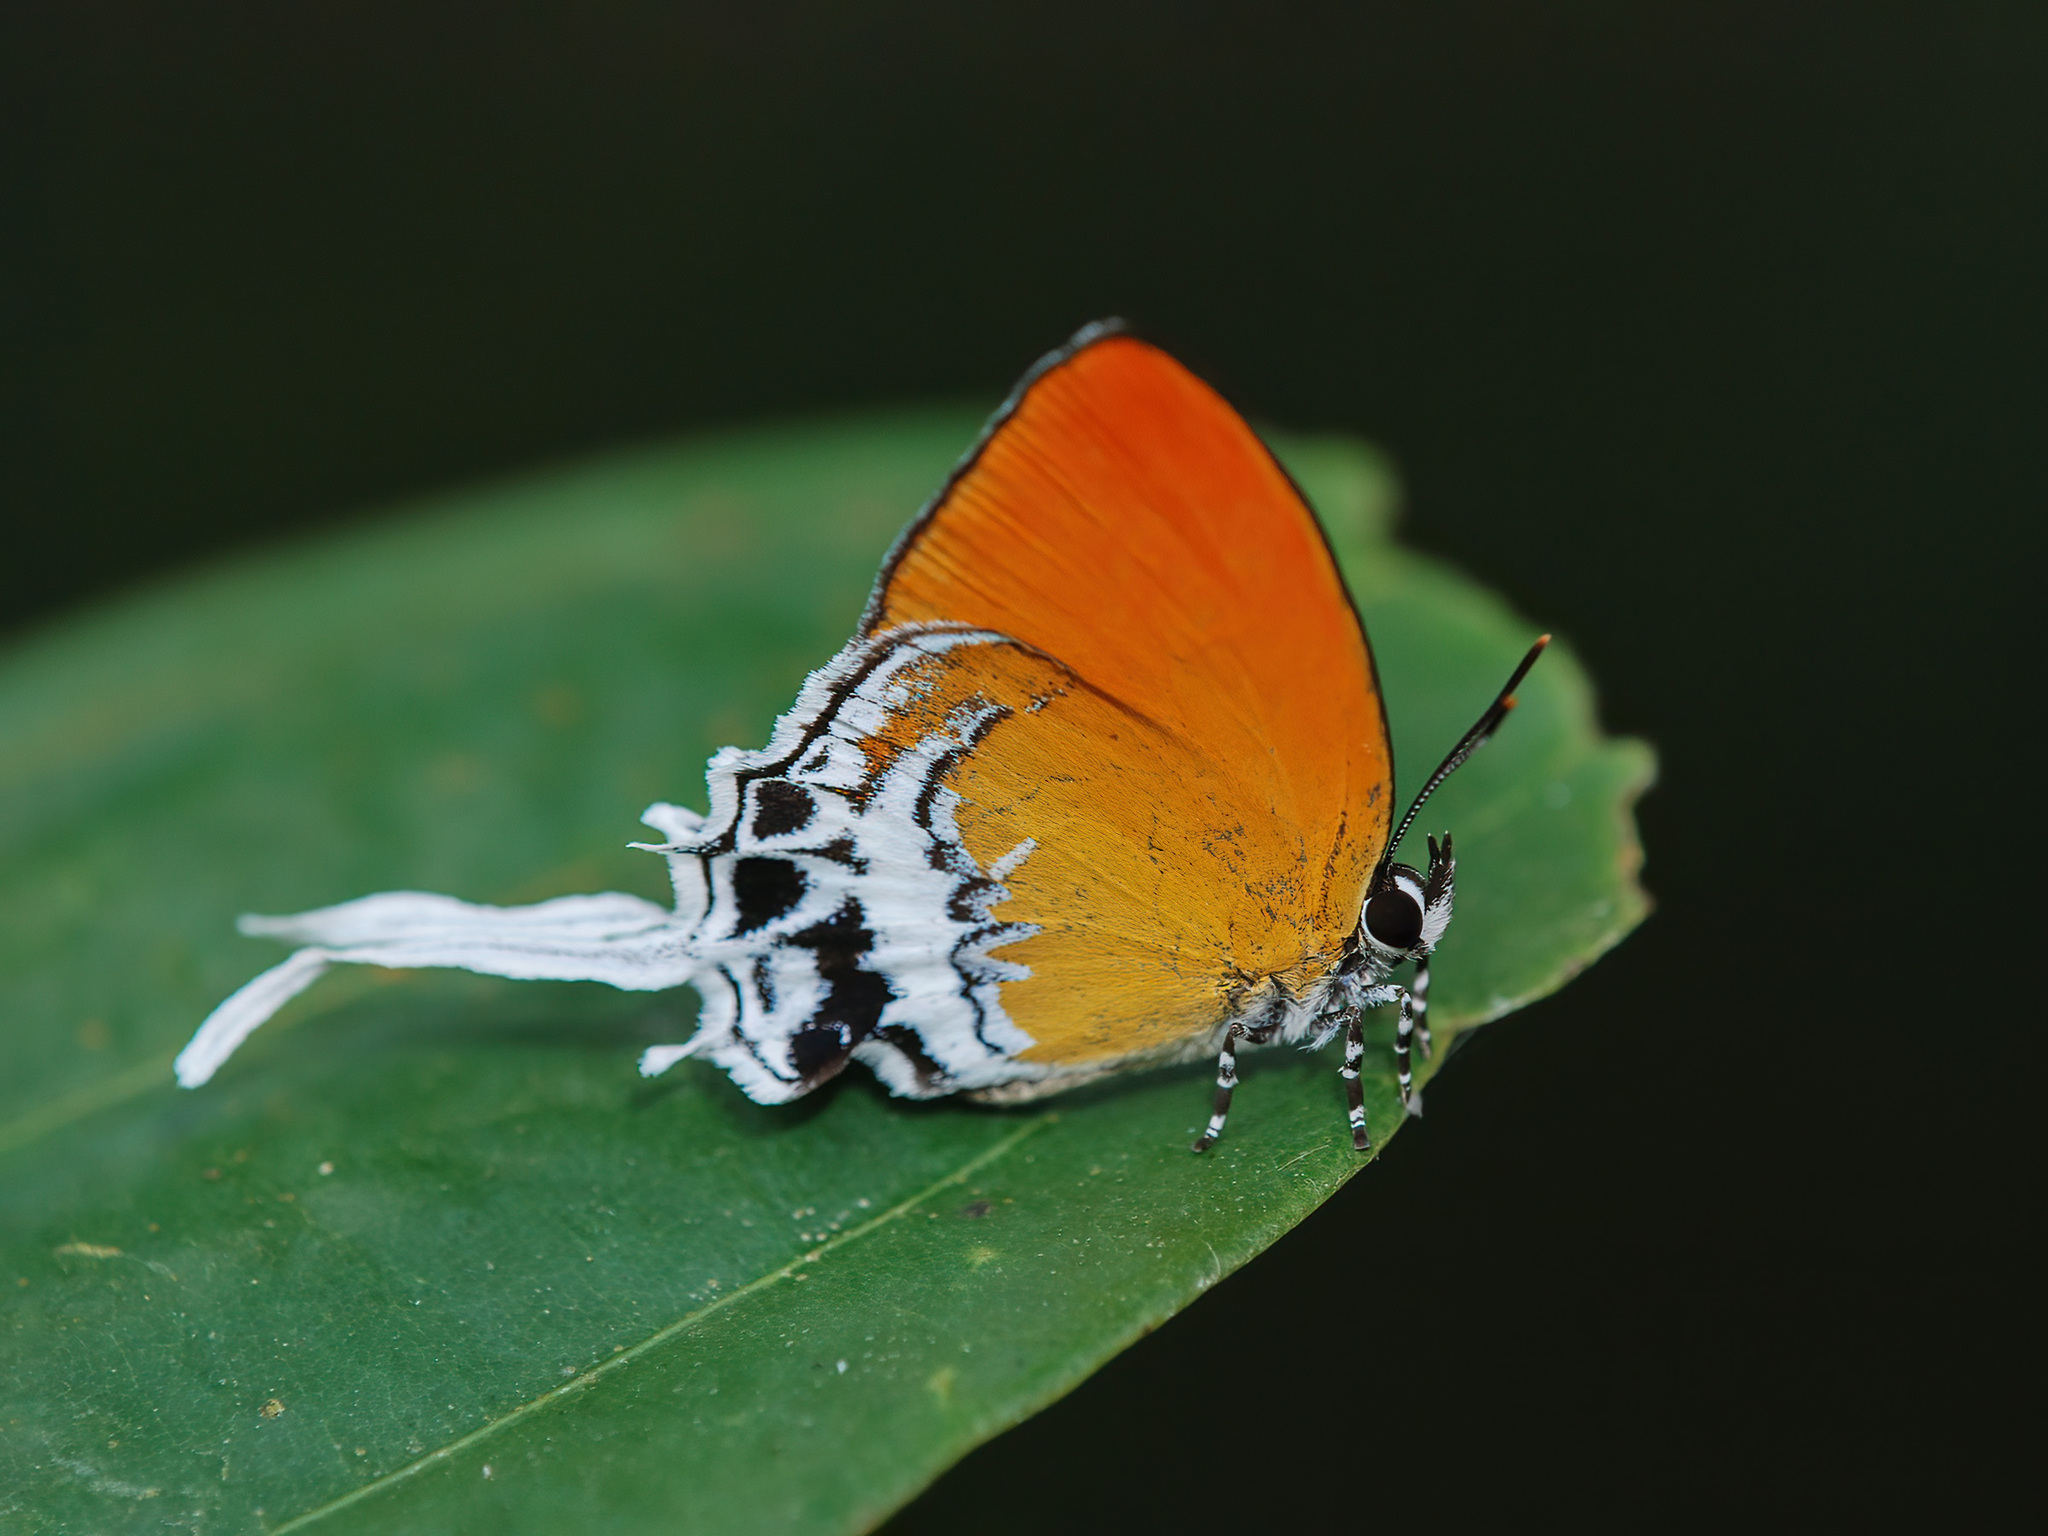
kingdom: Animalia
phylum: Arthropoda
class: Insecta
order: Lepidoptera
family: Lycaenidae
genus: Eooxylides
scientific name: Eooxylides tharis
